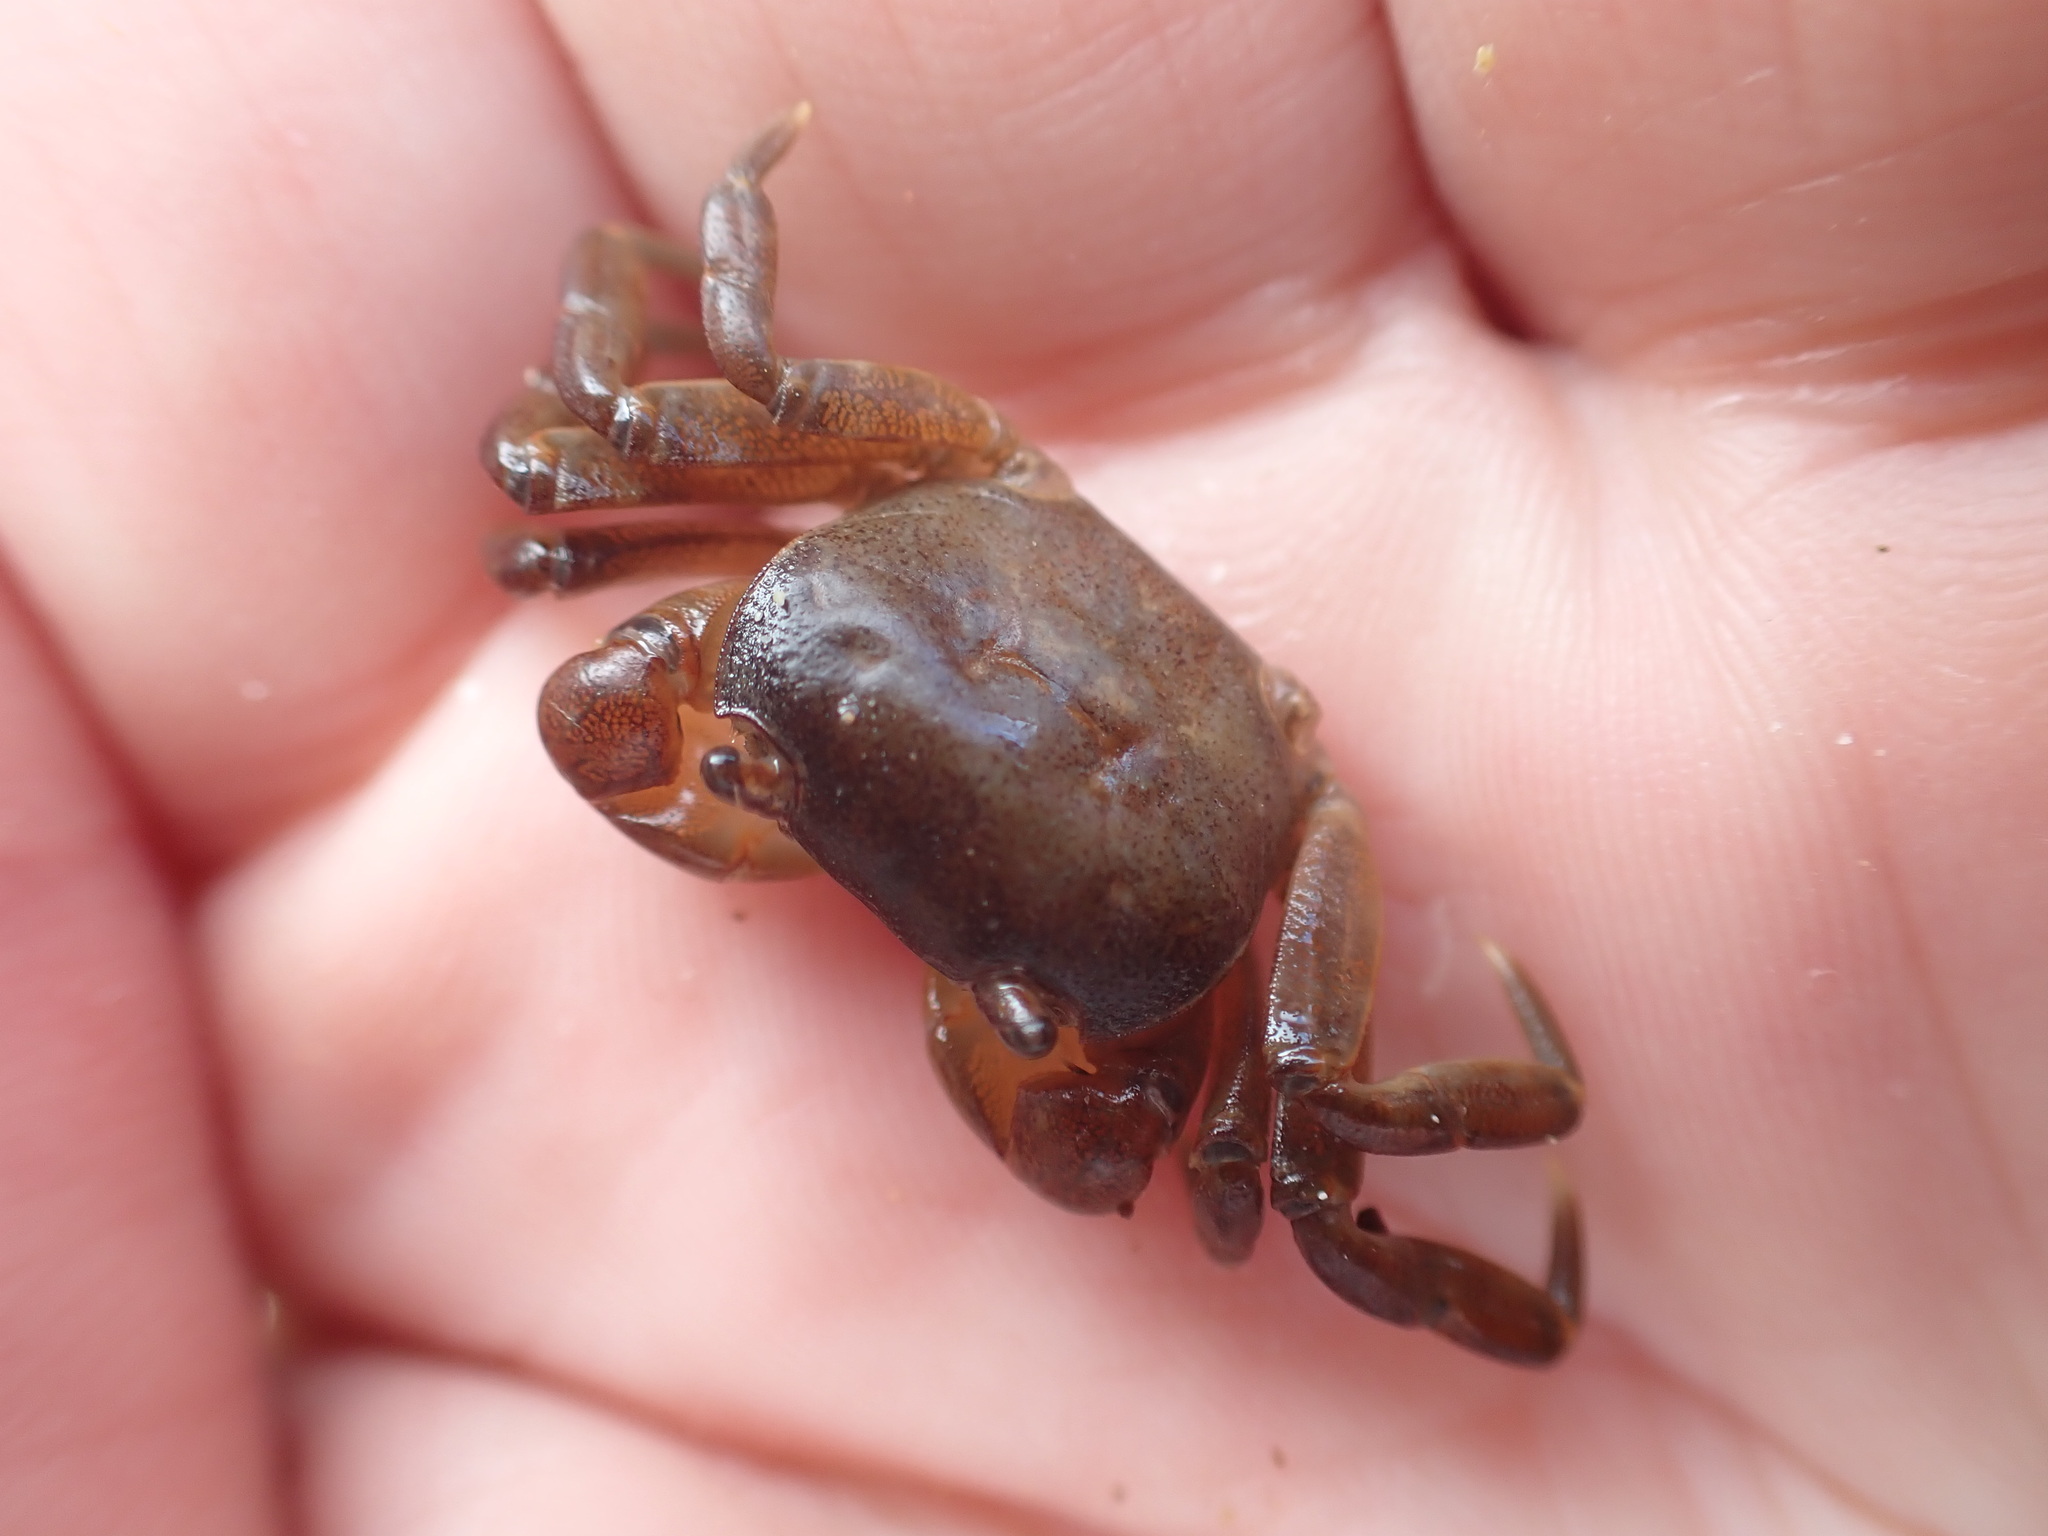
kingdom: Animalia
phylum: Arthropoda
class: Malacostraca
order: Decapoda
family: Varunidae
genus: Cyclograpsus
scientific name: Cyclograpsus lavauxi
